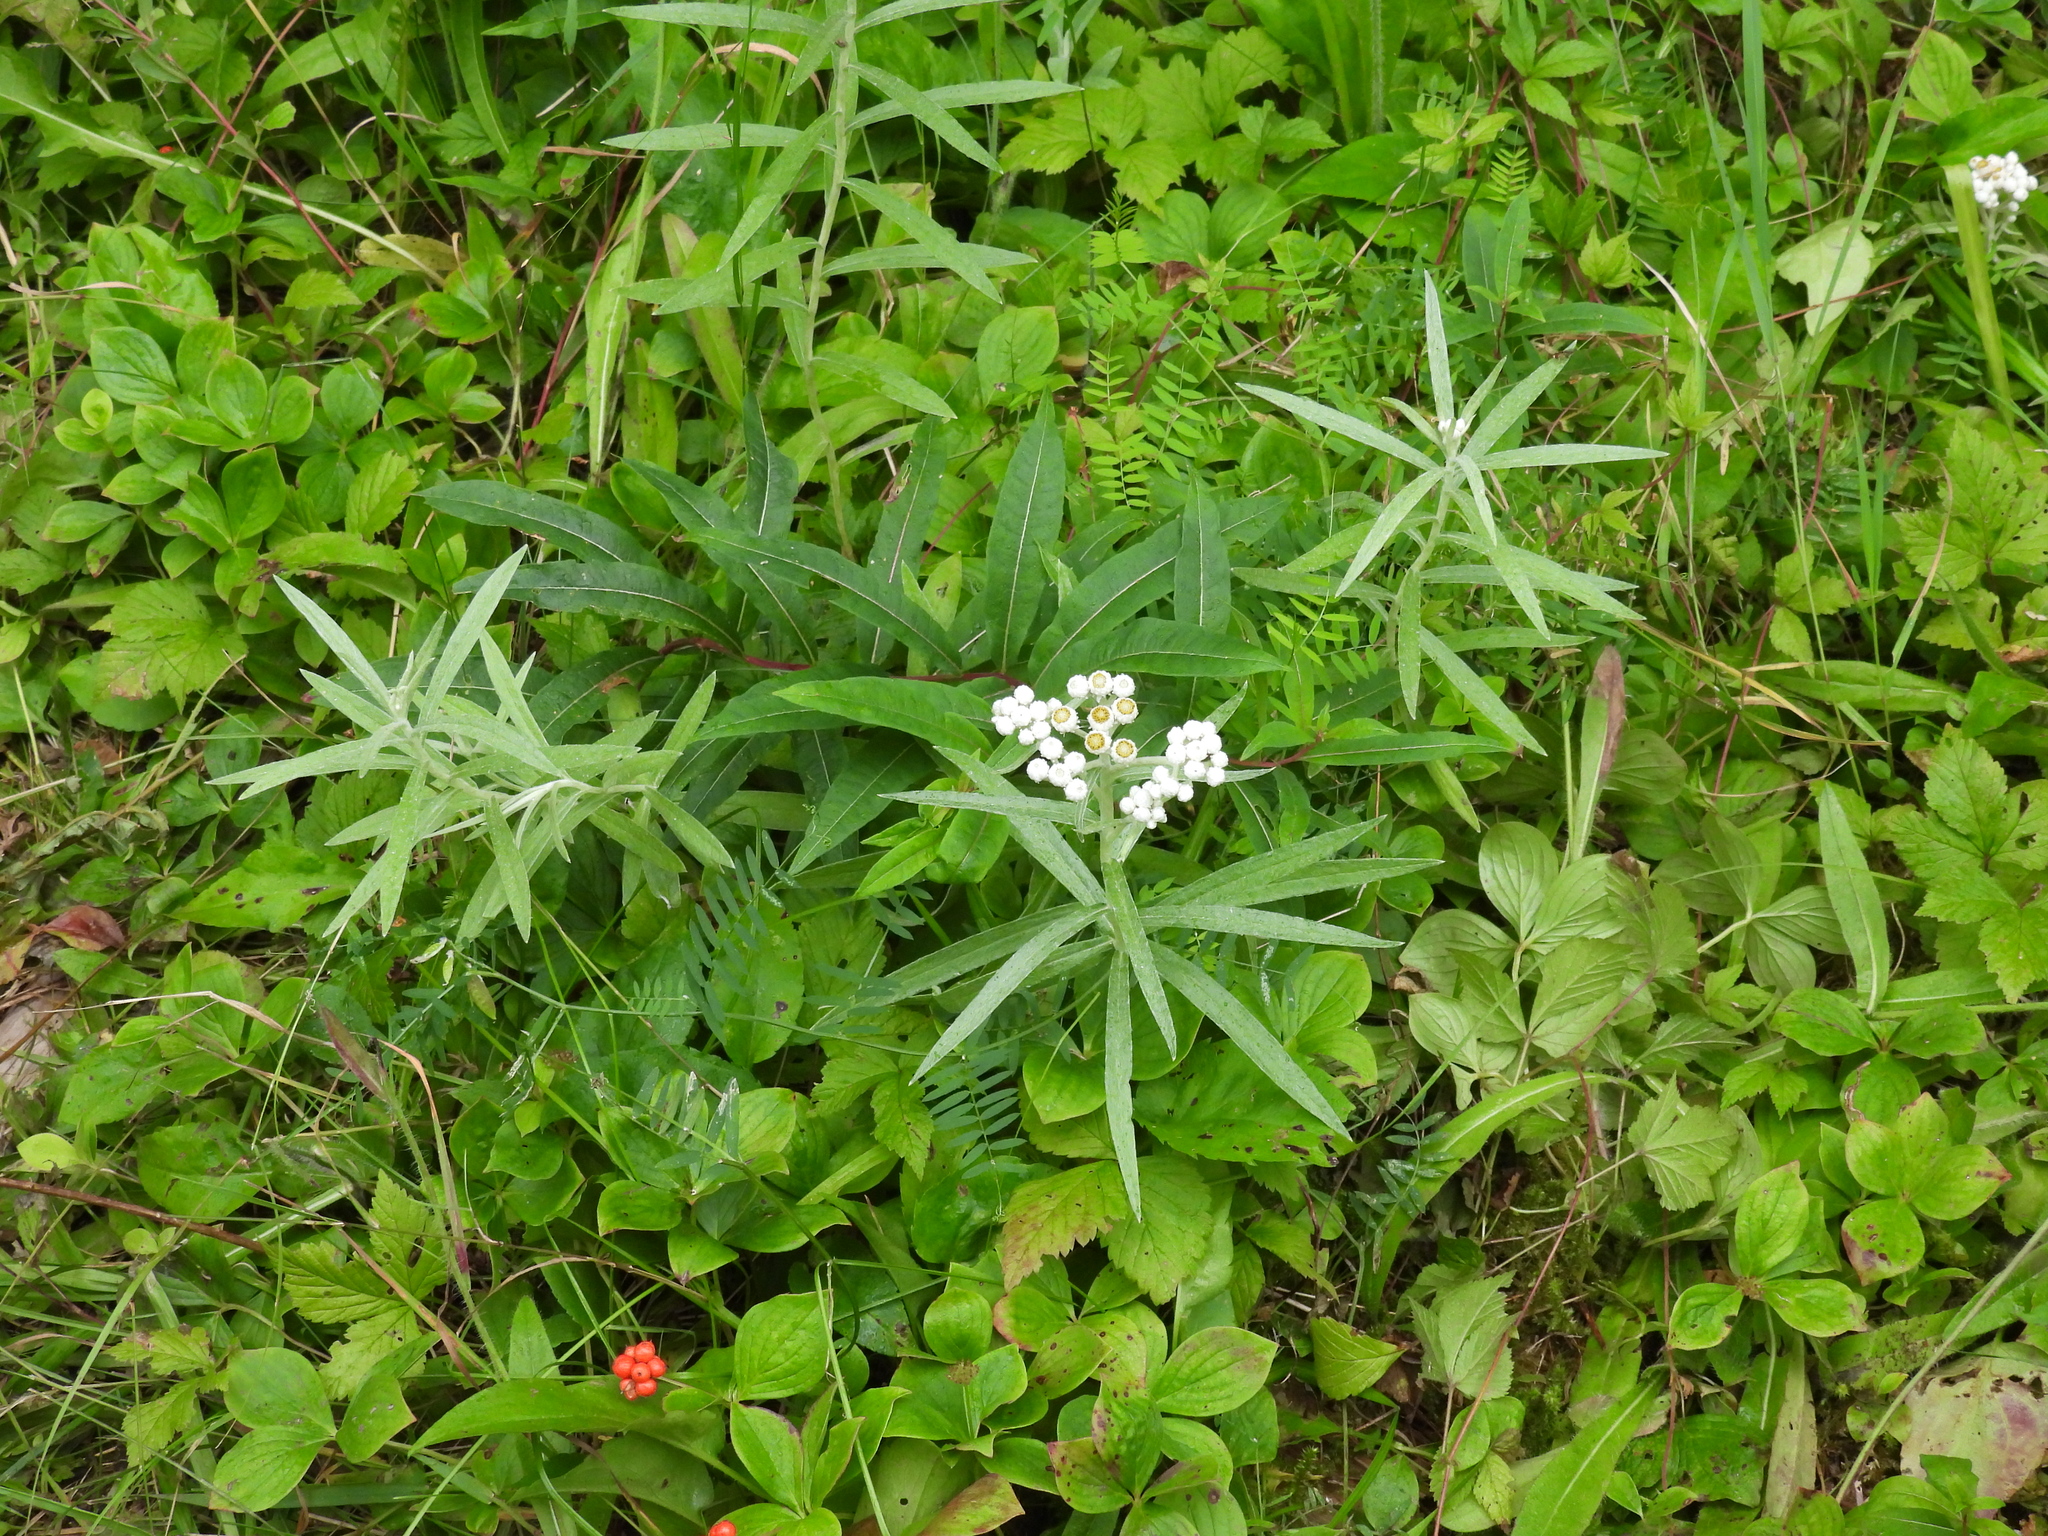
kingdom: Plantae
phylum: Tracheophyta
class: Magnoliopsida
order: Asterales
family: Asteraceae
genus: Anaphalis
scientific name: Anaphalis margaritacea
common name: Pearly everlasting
